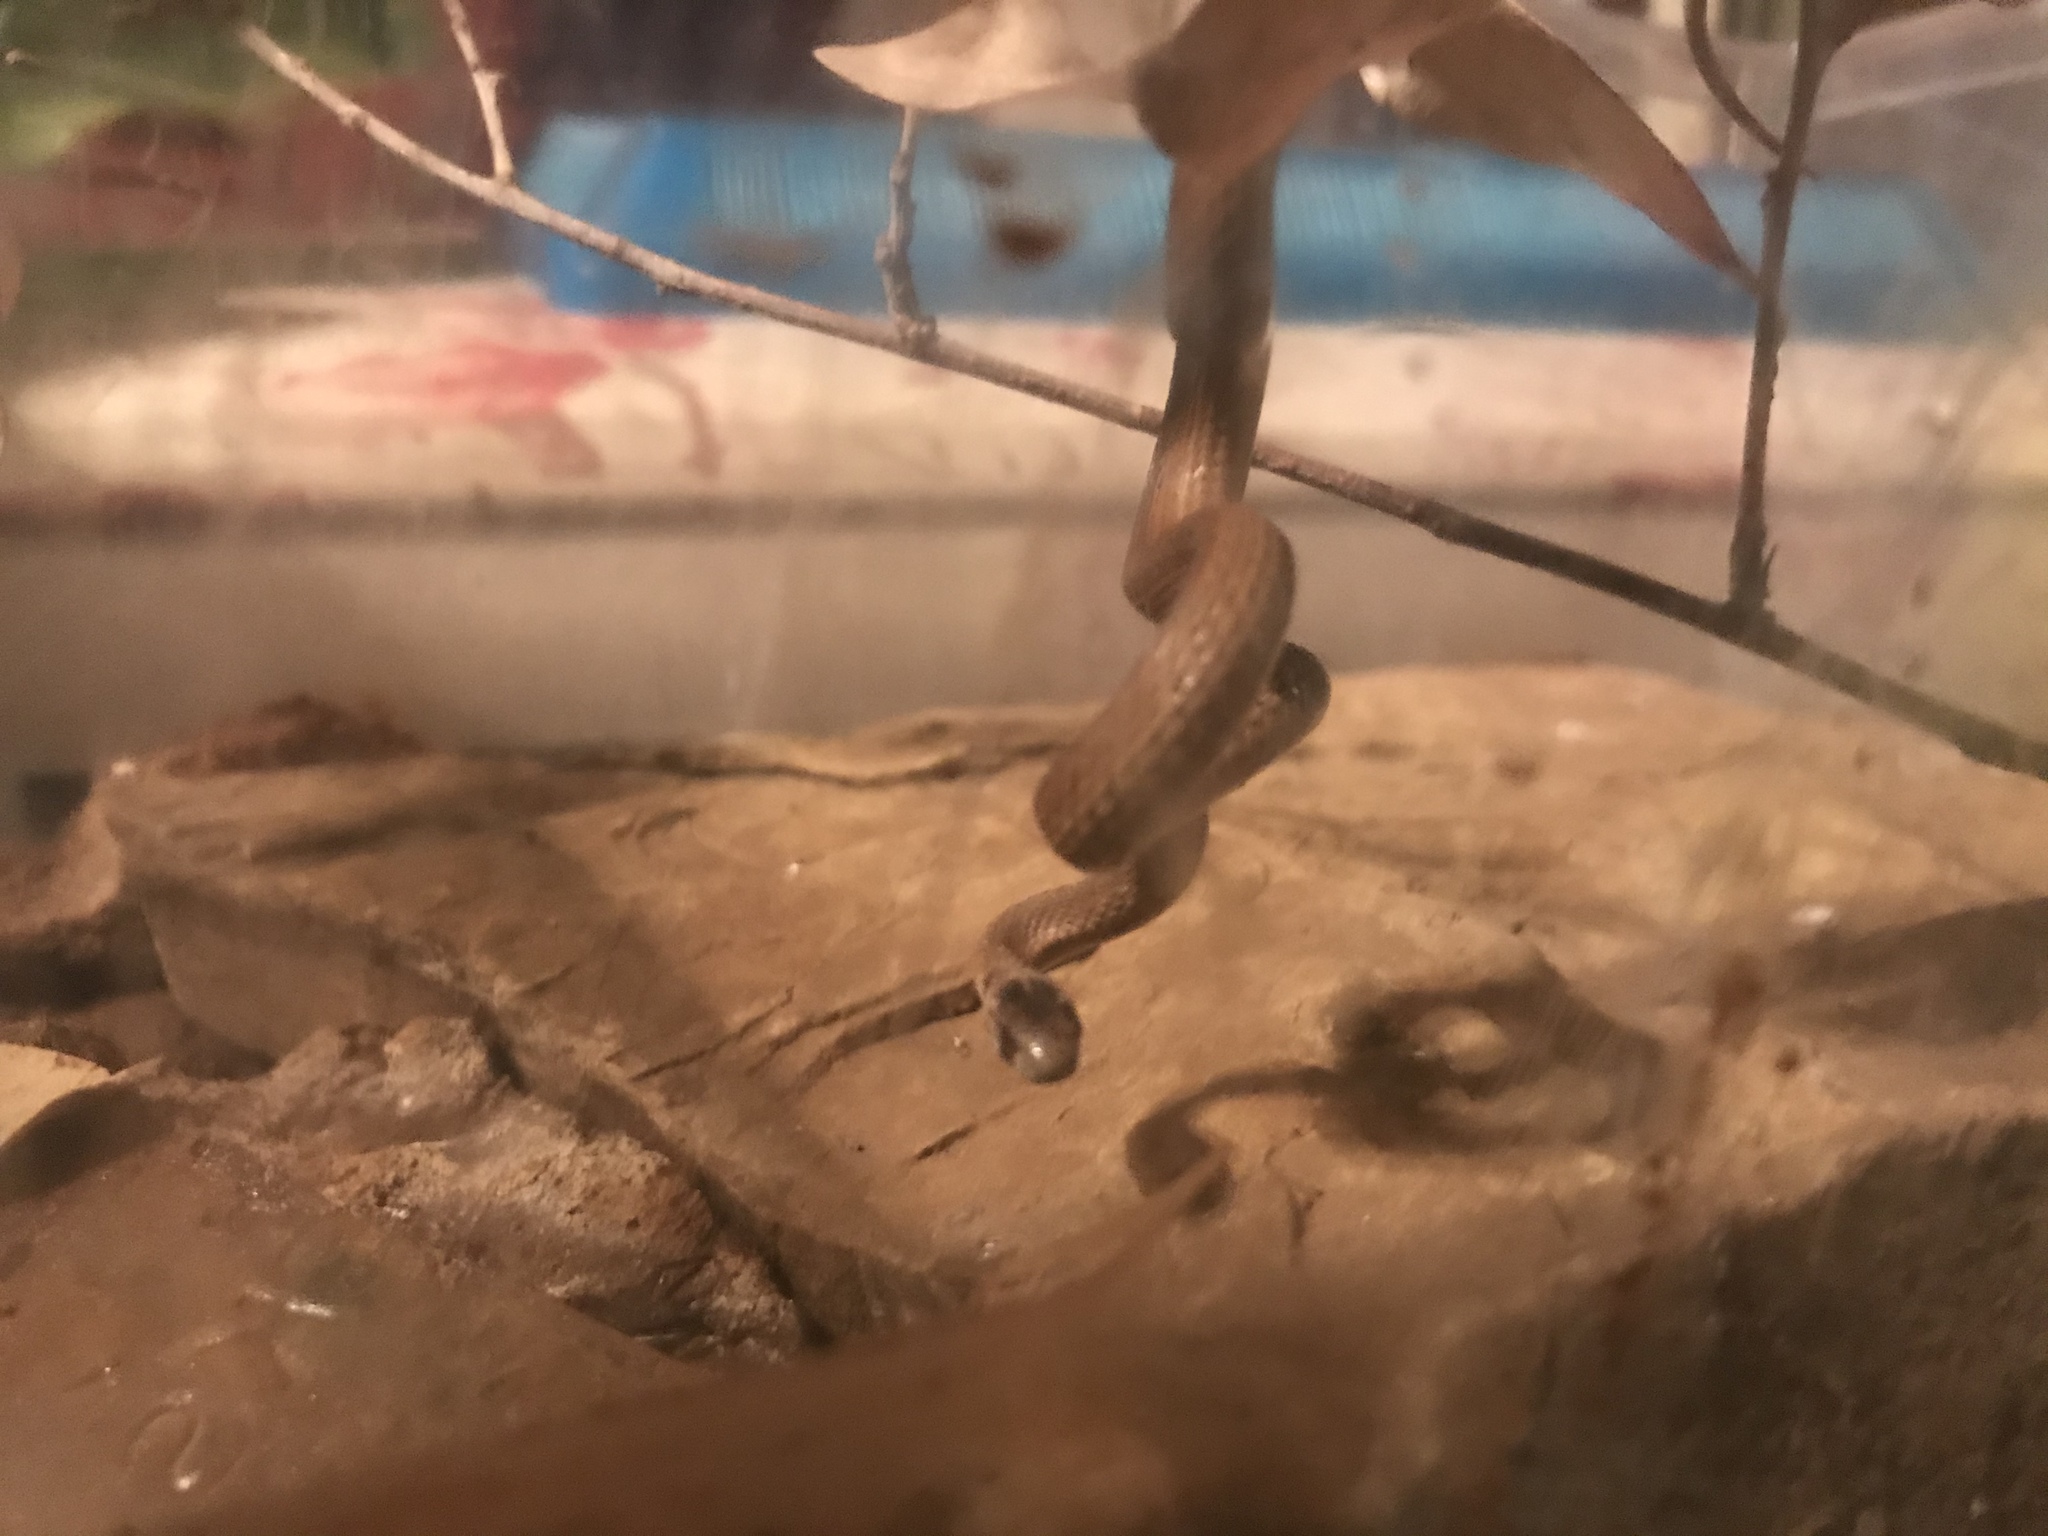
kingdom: Animalia
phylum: Chordata
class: Squamata
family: Colubridae
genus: Storeria
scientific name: Storeria dekayi
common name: (dekay’s) brown snake
